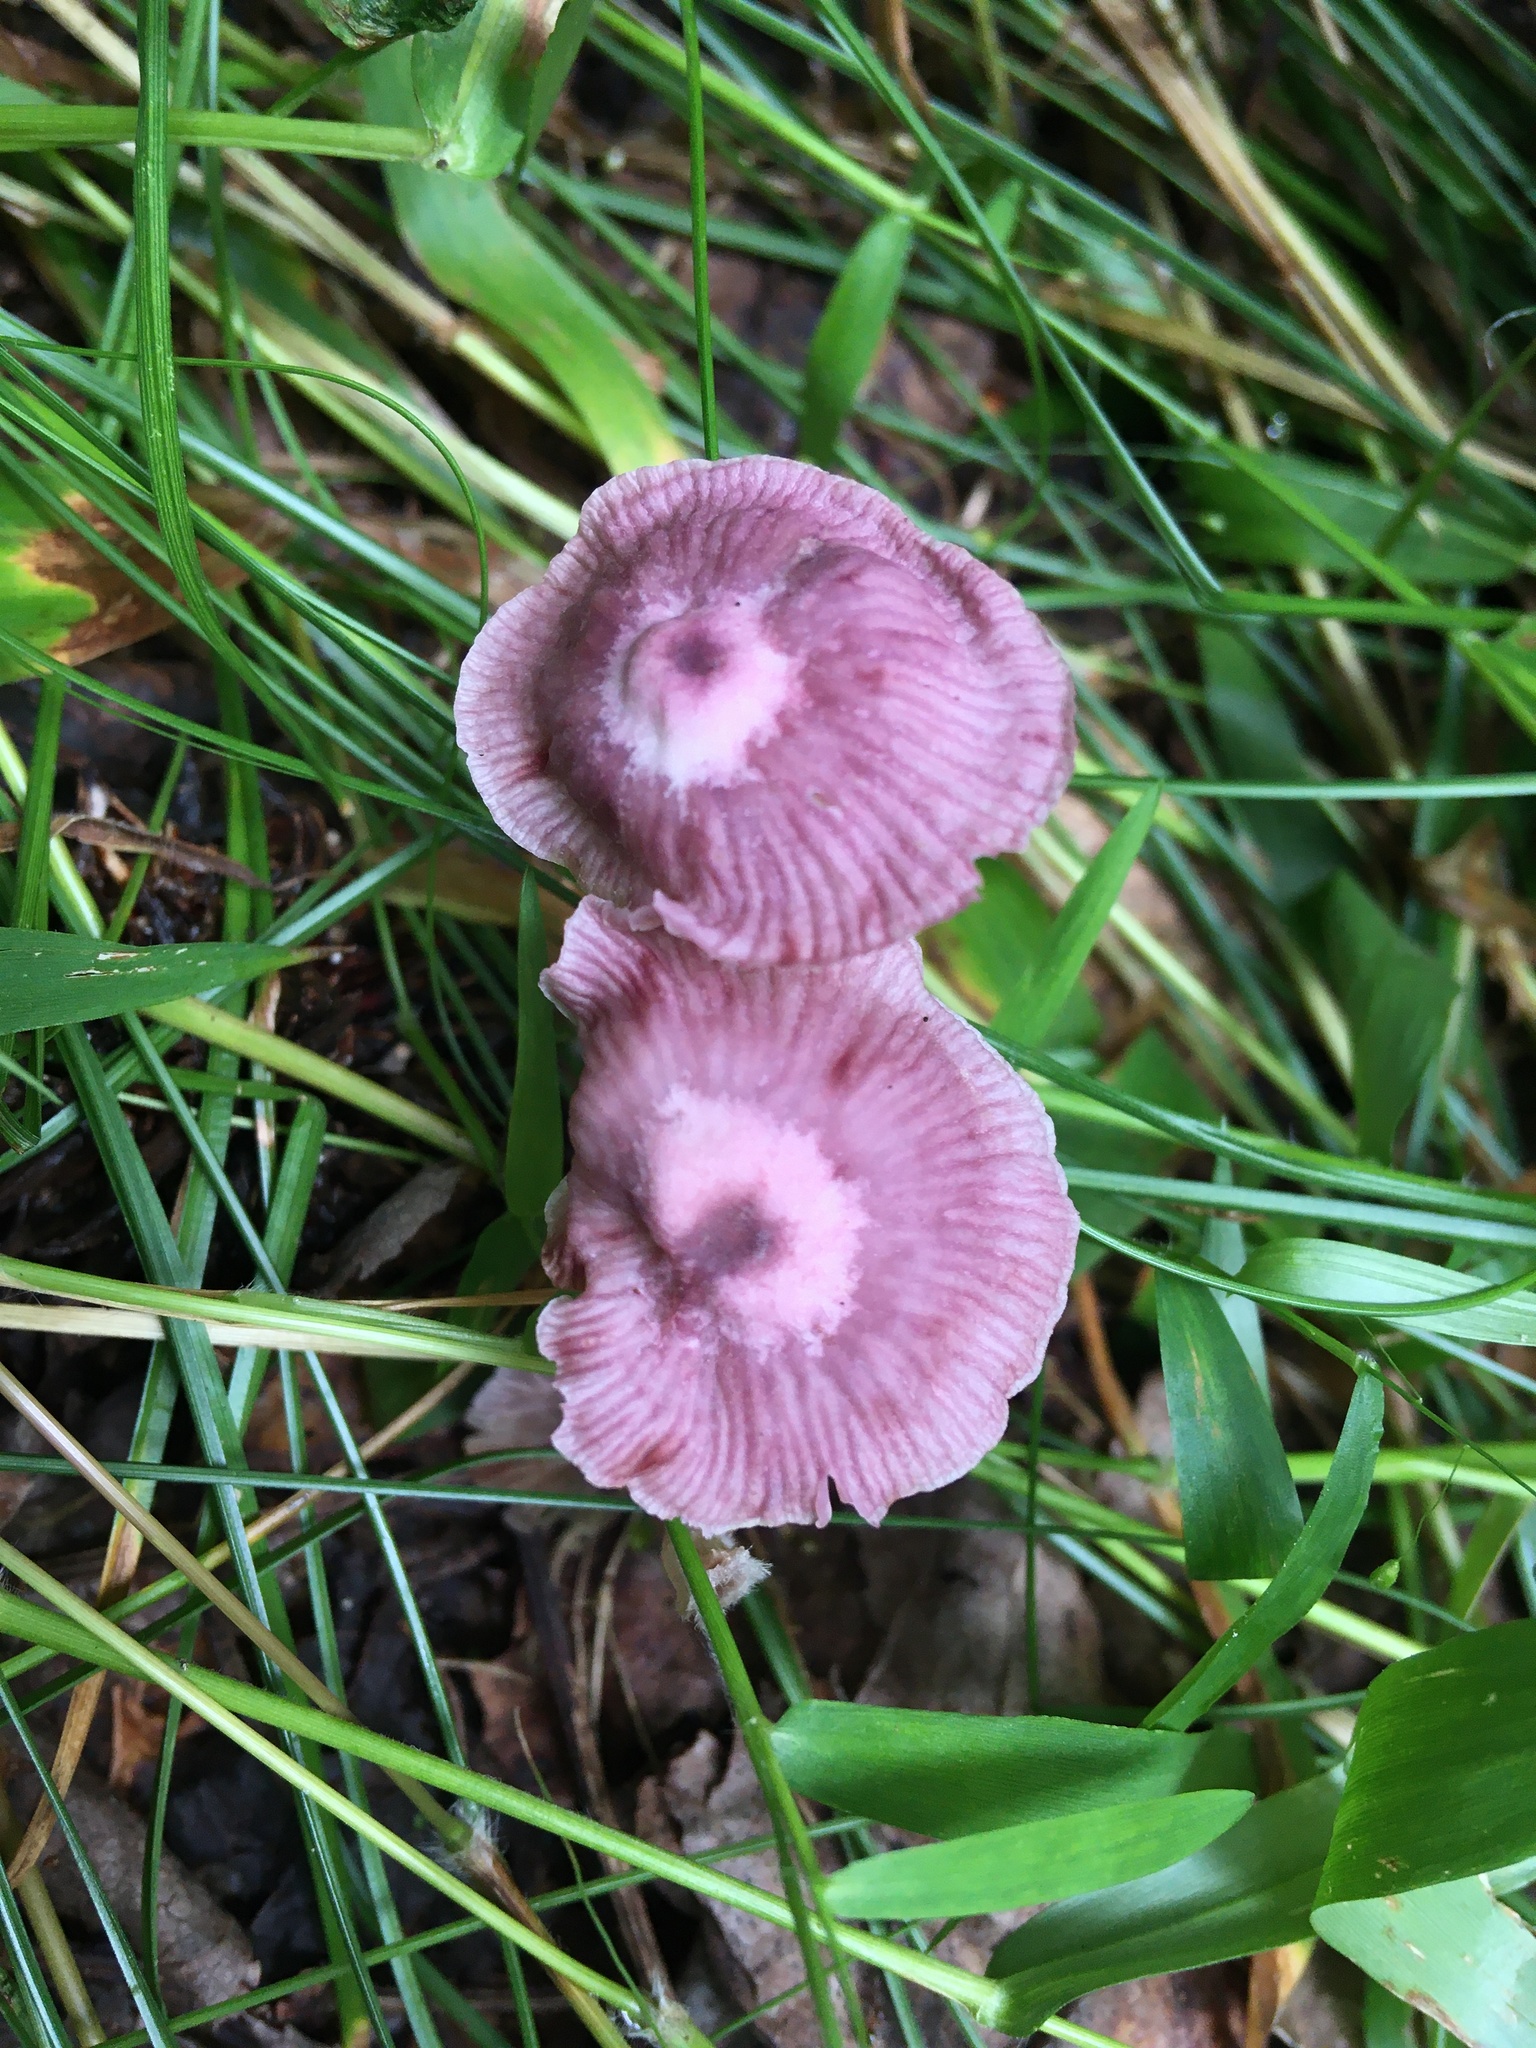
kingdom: Fungi
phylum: Basidiomycota
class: Agaricomycetes
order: Agaricales
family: Omphalotaceae
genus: Gymnopus
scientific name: Gymnopus iocephalus
